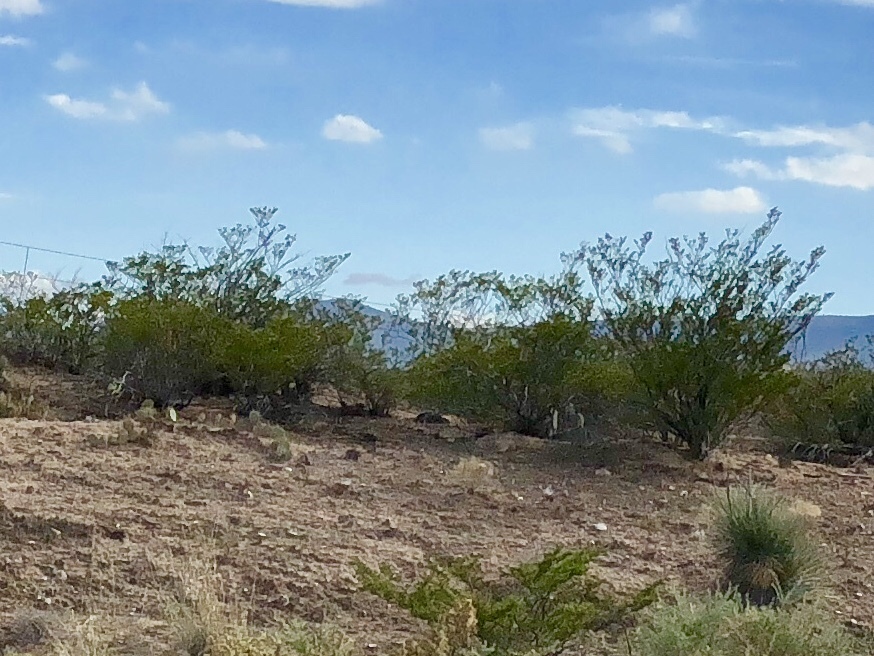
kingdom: Plantae
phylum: Tracheophyta
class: Magnoliopsida
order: Zygophyllales
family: Zygophyllaceae
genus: Larrea
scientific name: Larrea tridentata
